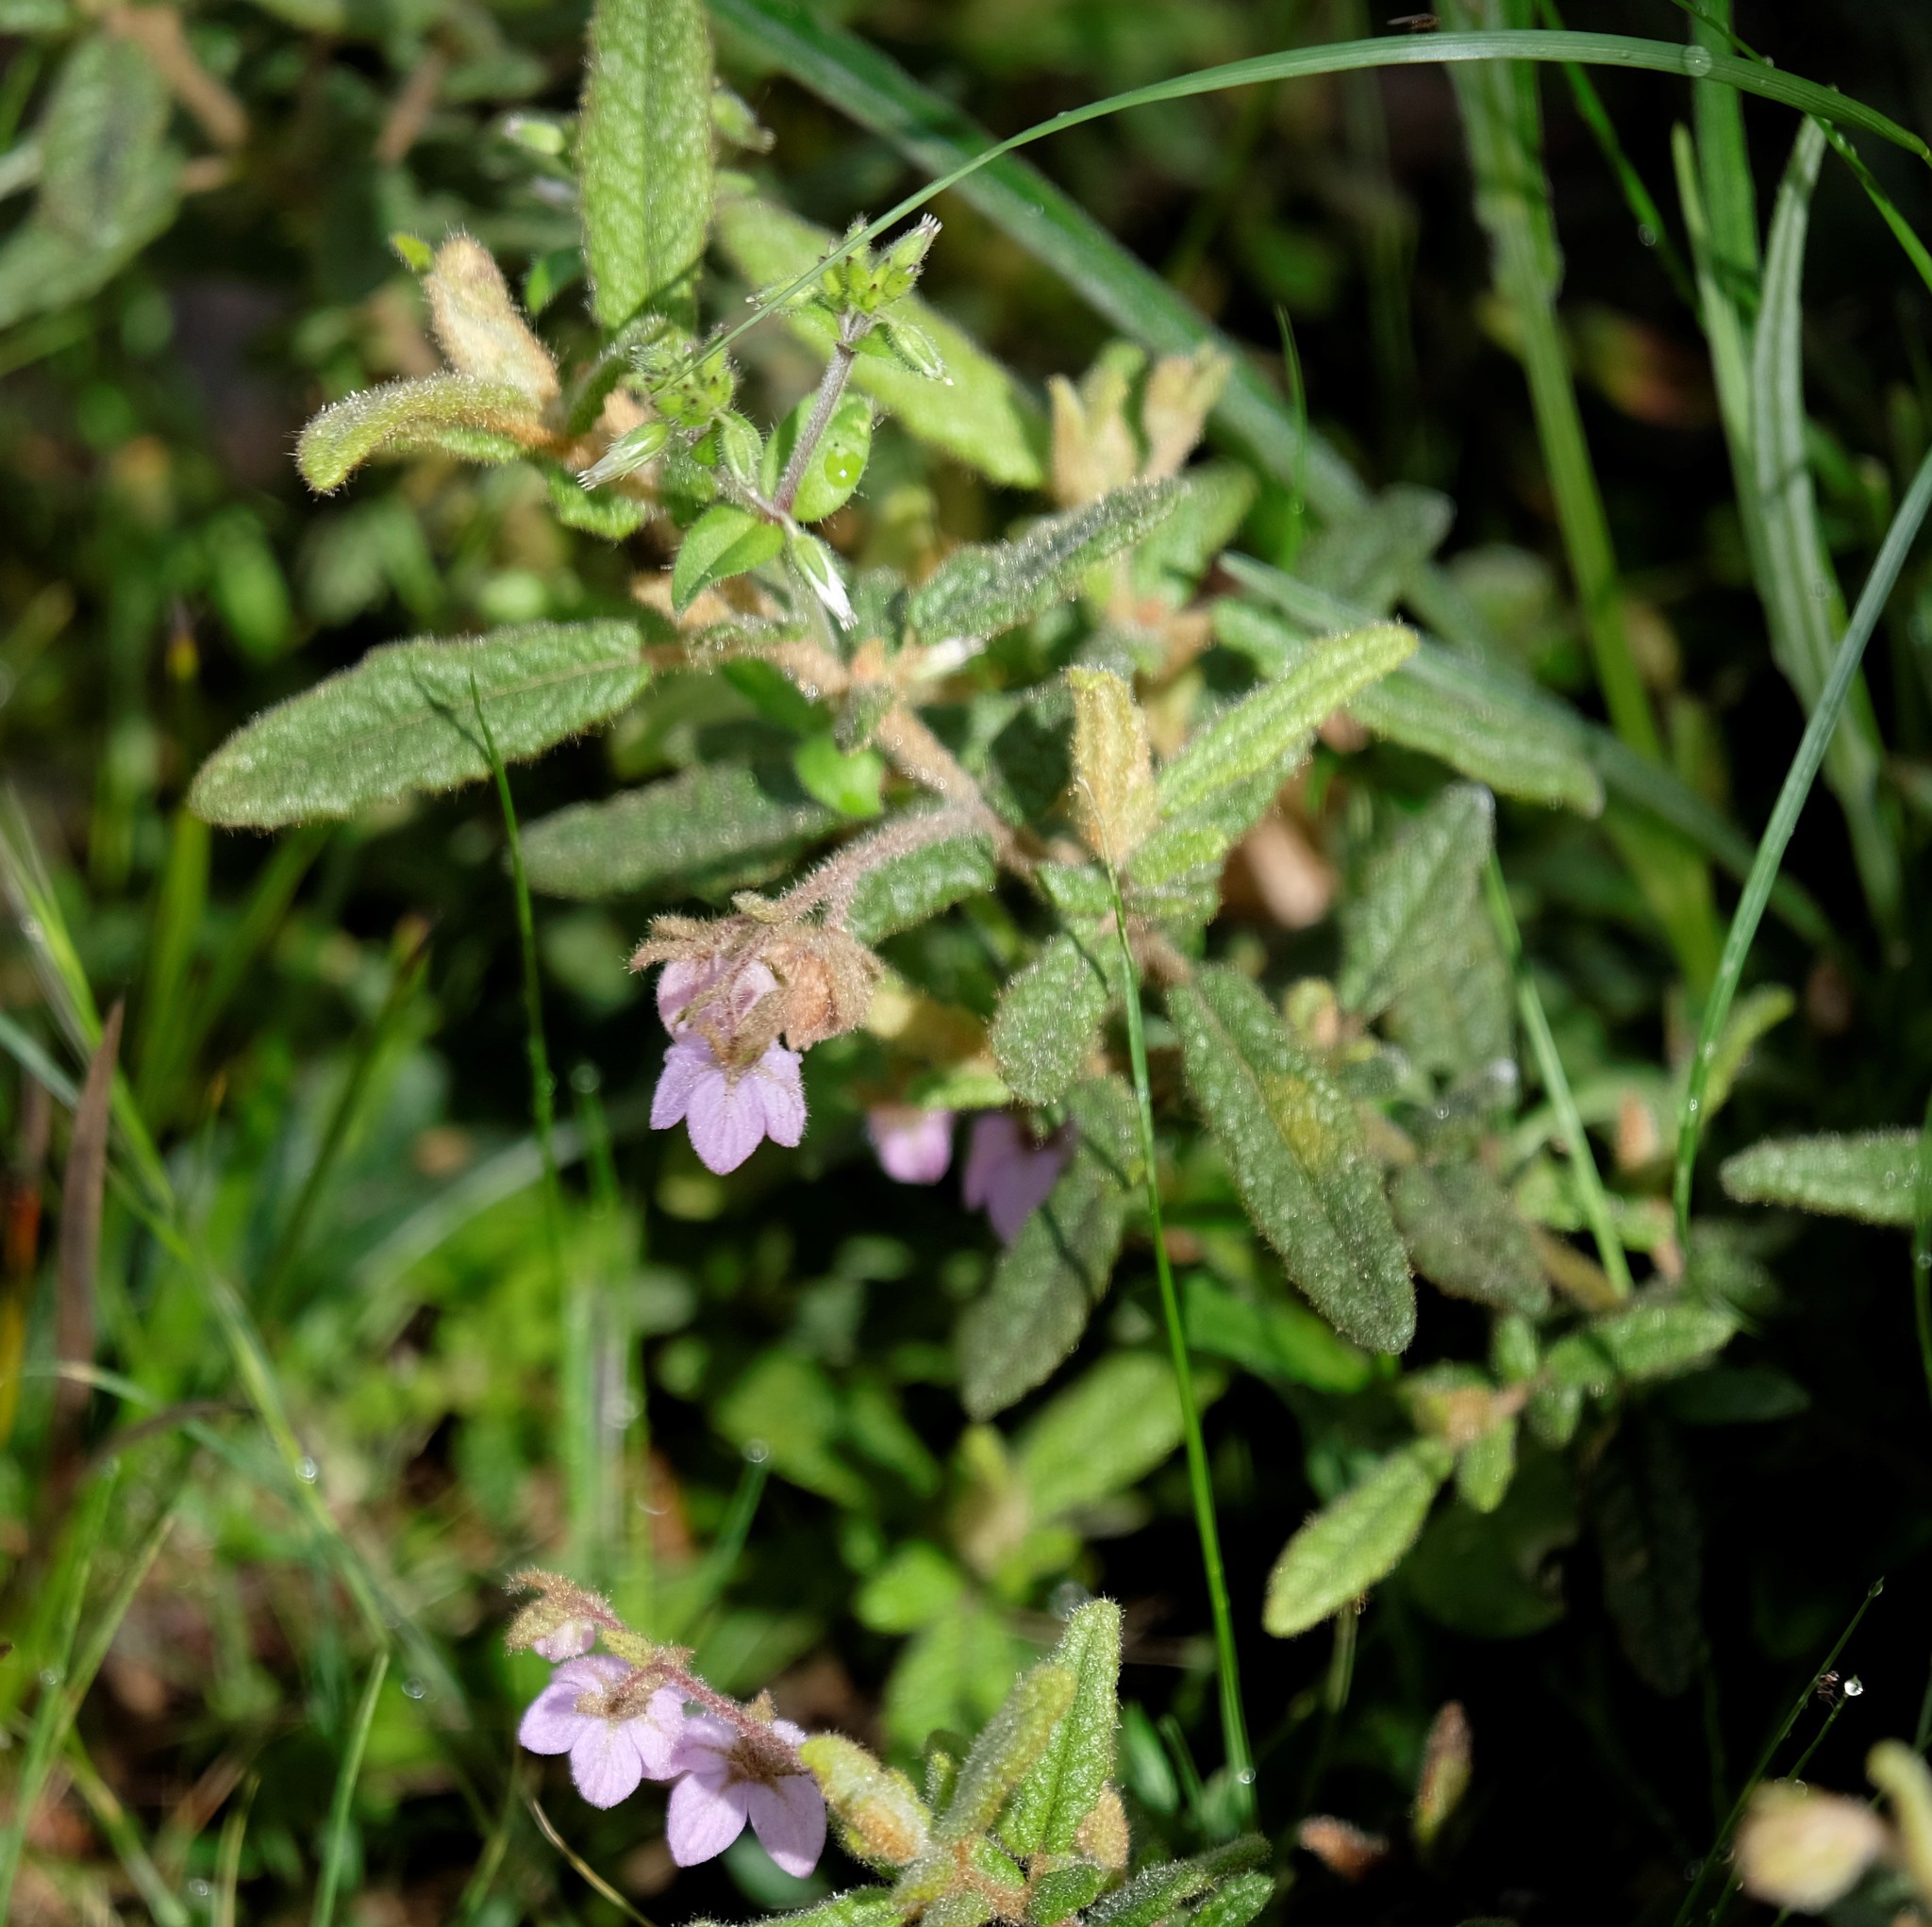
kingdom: Plantae
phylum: Tracheophyta
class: Magnoliopsida
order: Malvales
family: Malvaceae
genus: Thomasia
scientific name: Thomasia petalocalyx
